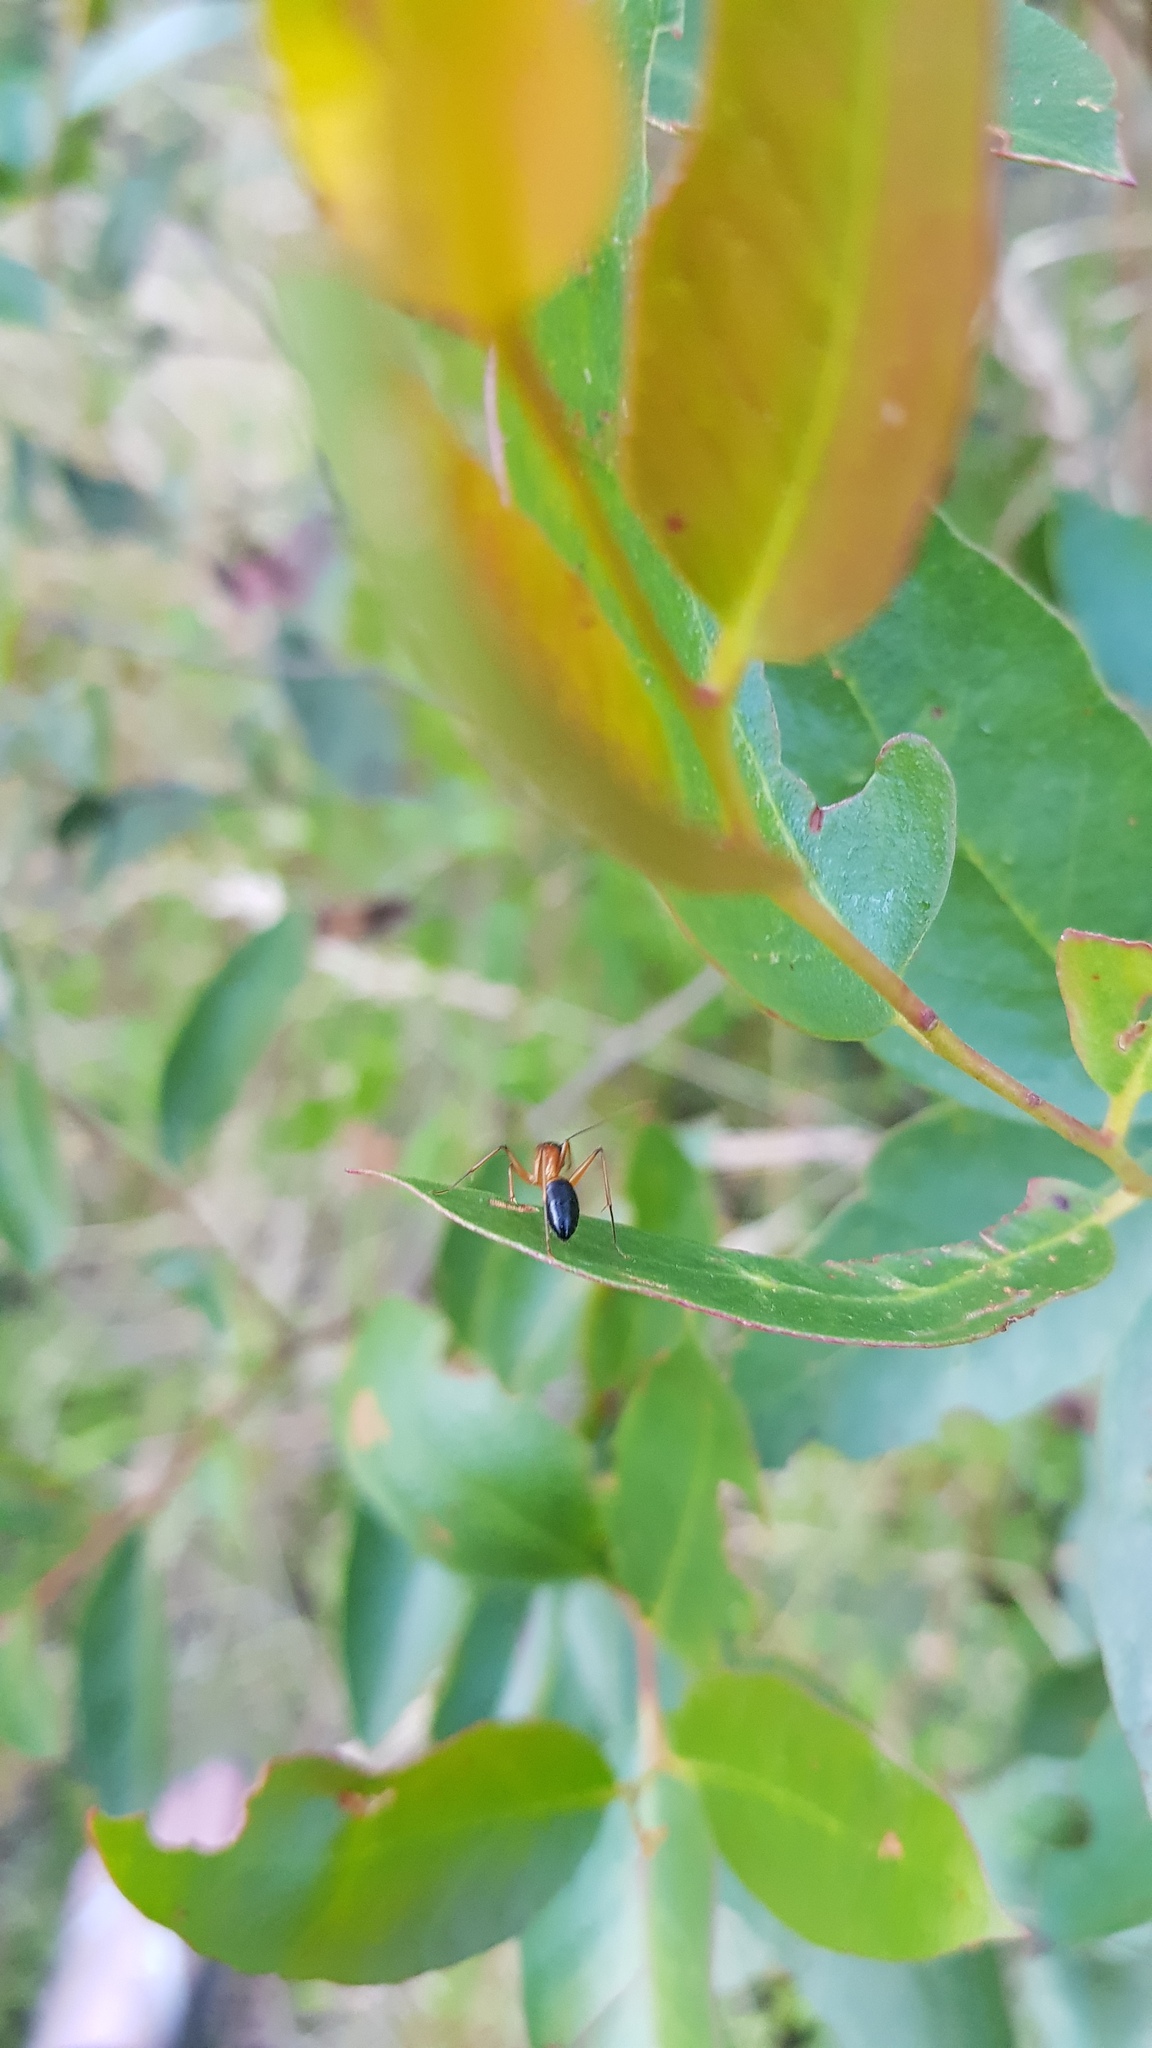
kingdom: Animalia
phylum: Arthropoda
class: Insecta
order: Hymenoptera
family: Formicidae
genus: Camponotus
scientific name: Camponotus consobrinus
